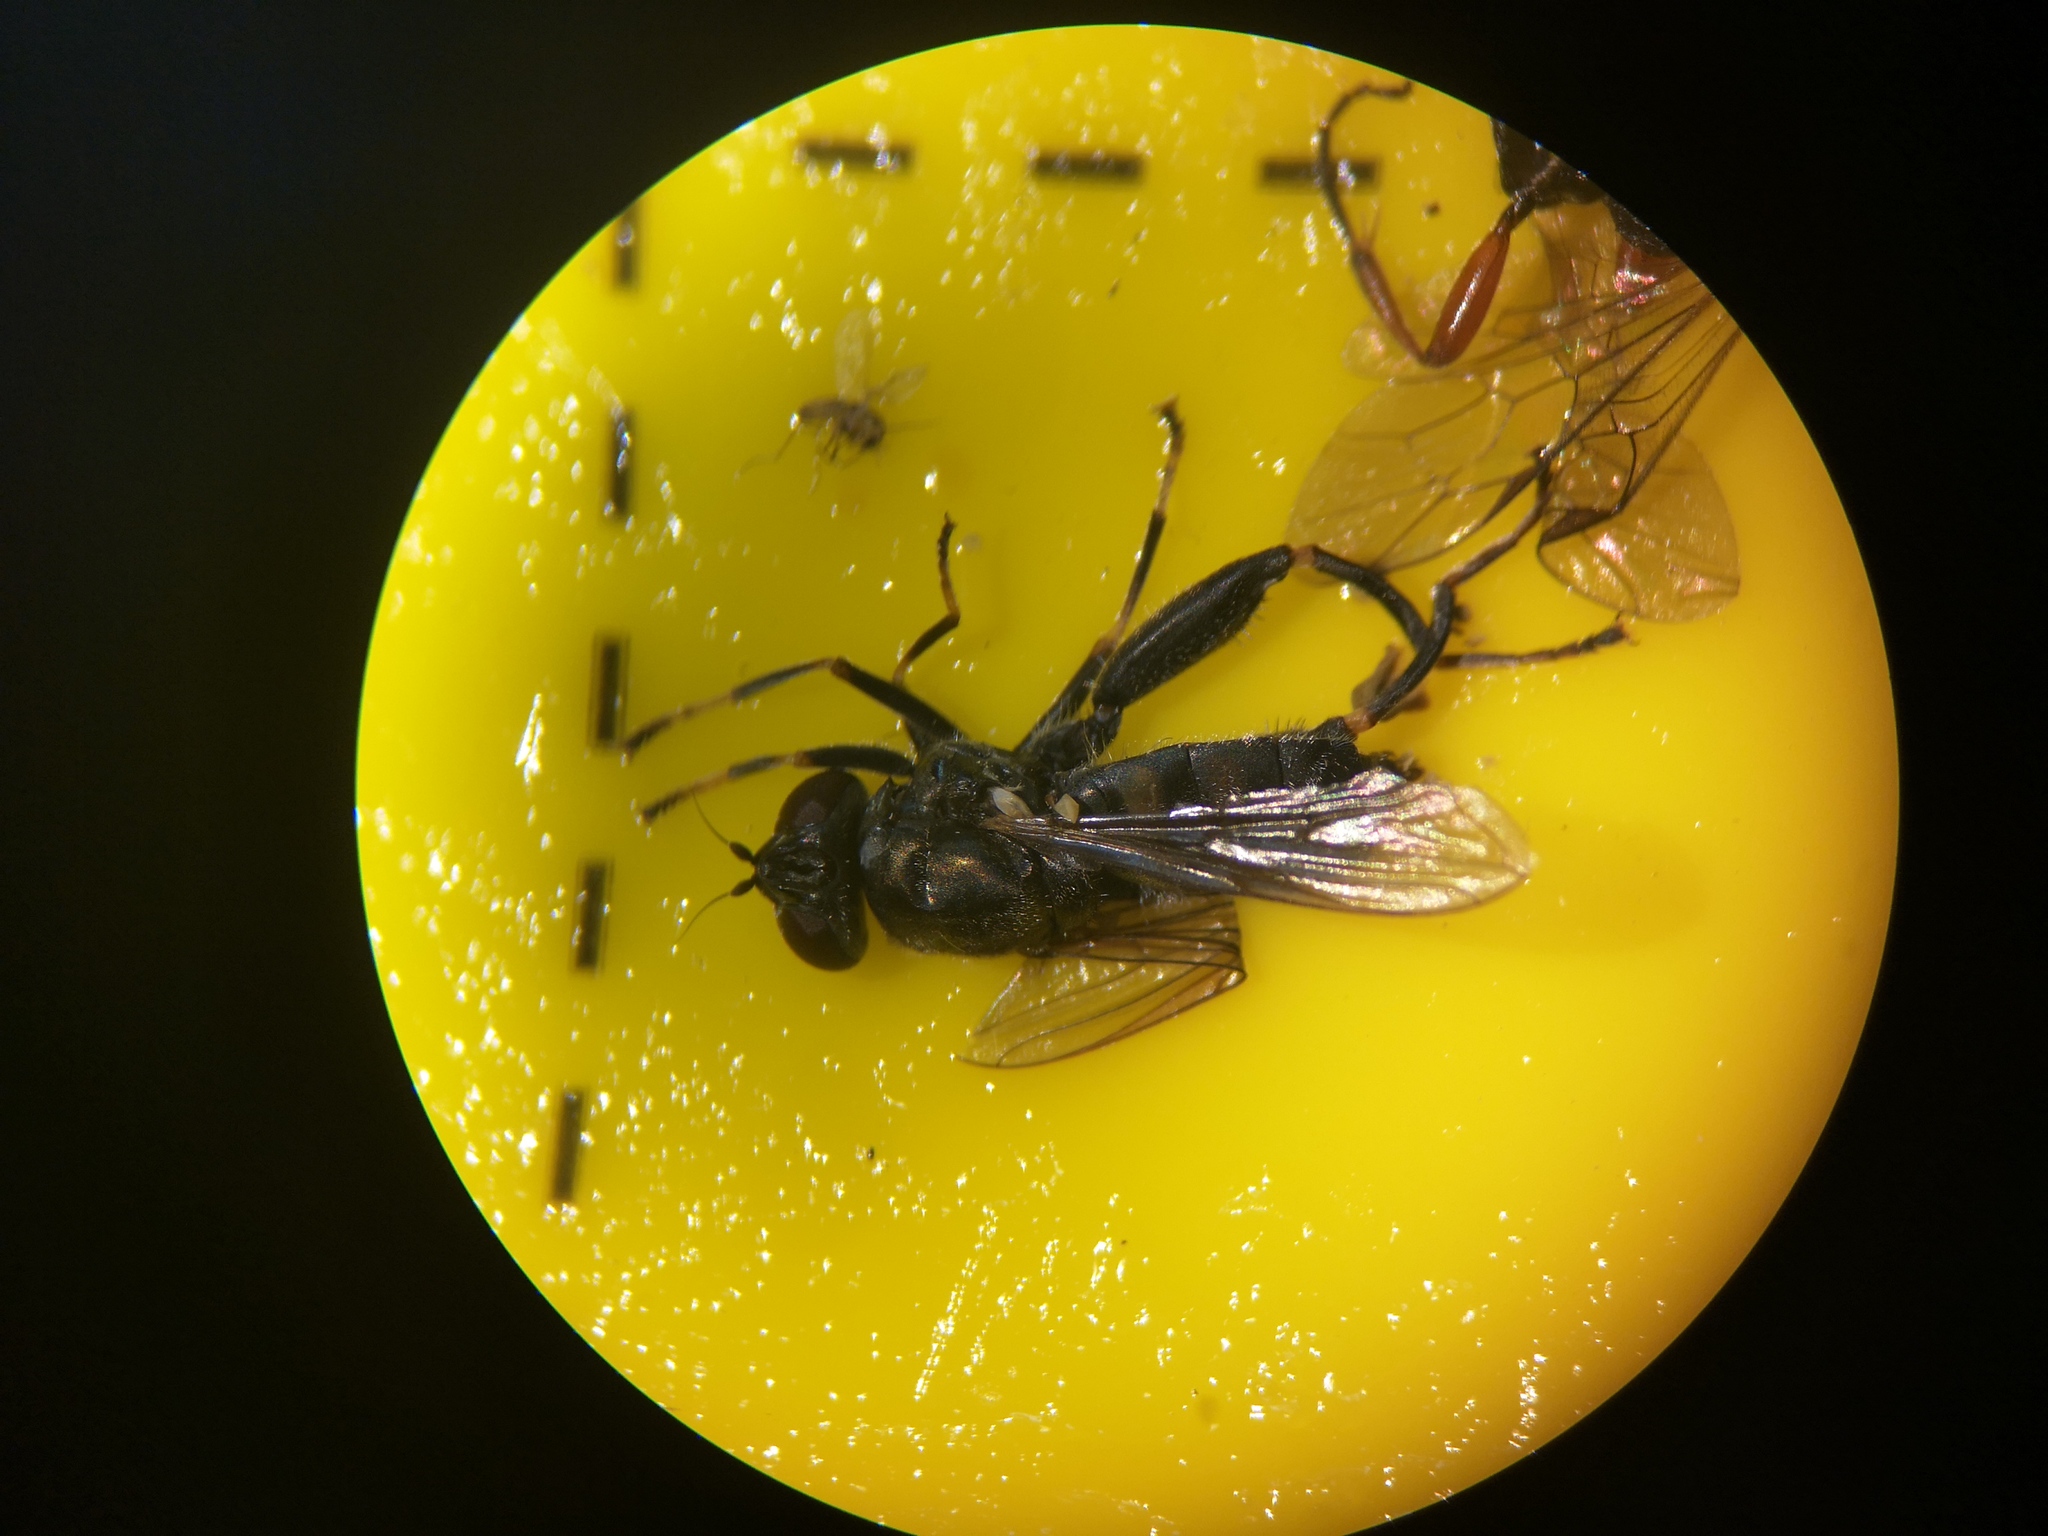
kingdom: Animalia
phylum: Arthropoda
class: Insecta
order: Diptera
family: Syrphidae
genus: Chalcosyrphus
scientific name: Chalcosyrphus nemorum
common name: Dusky-banded forest fly
